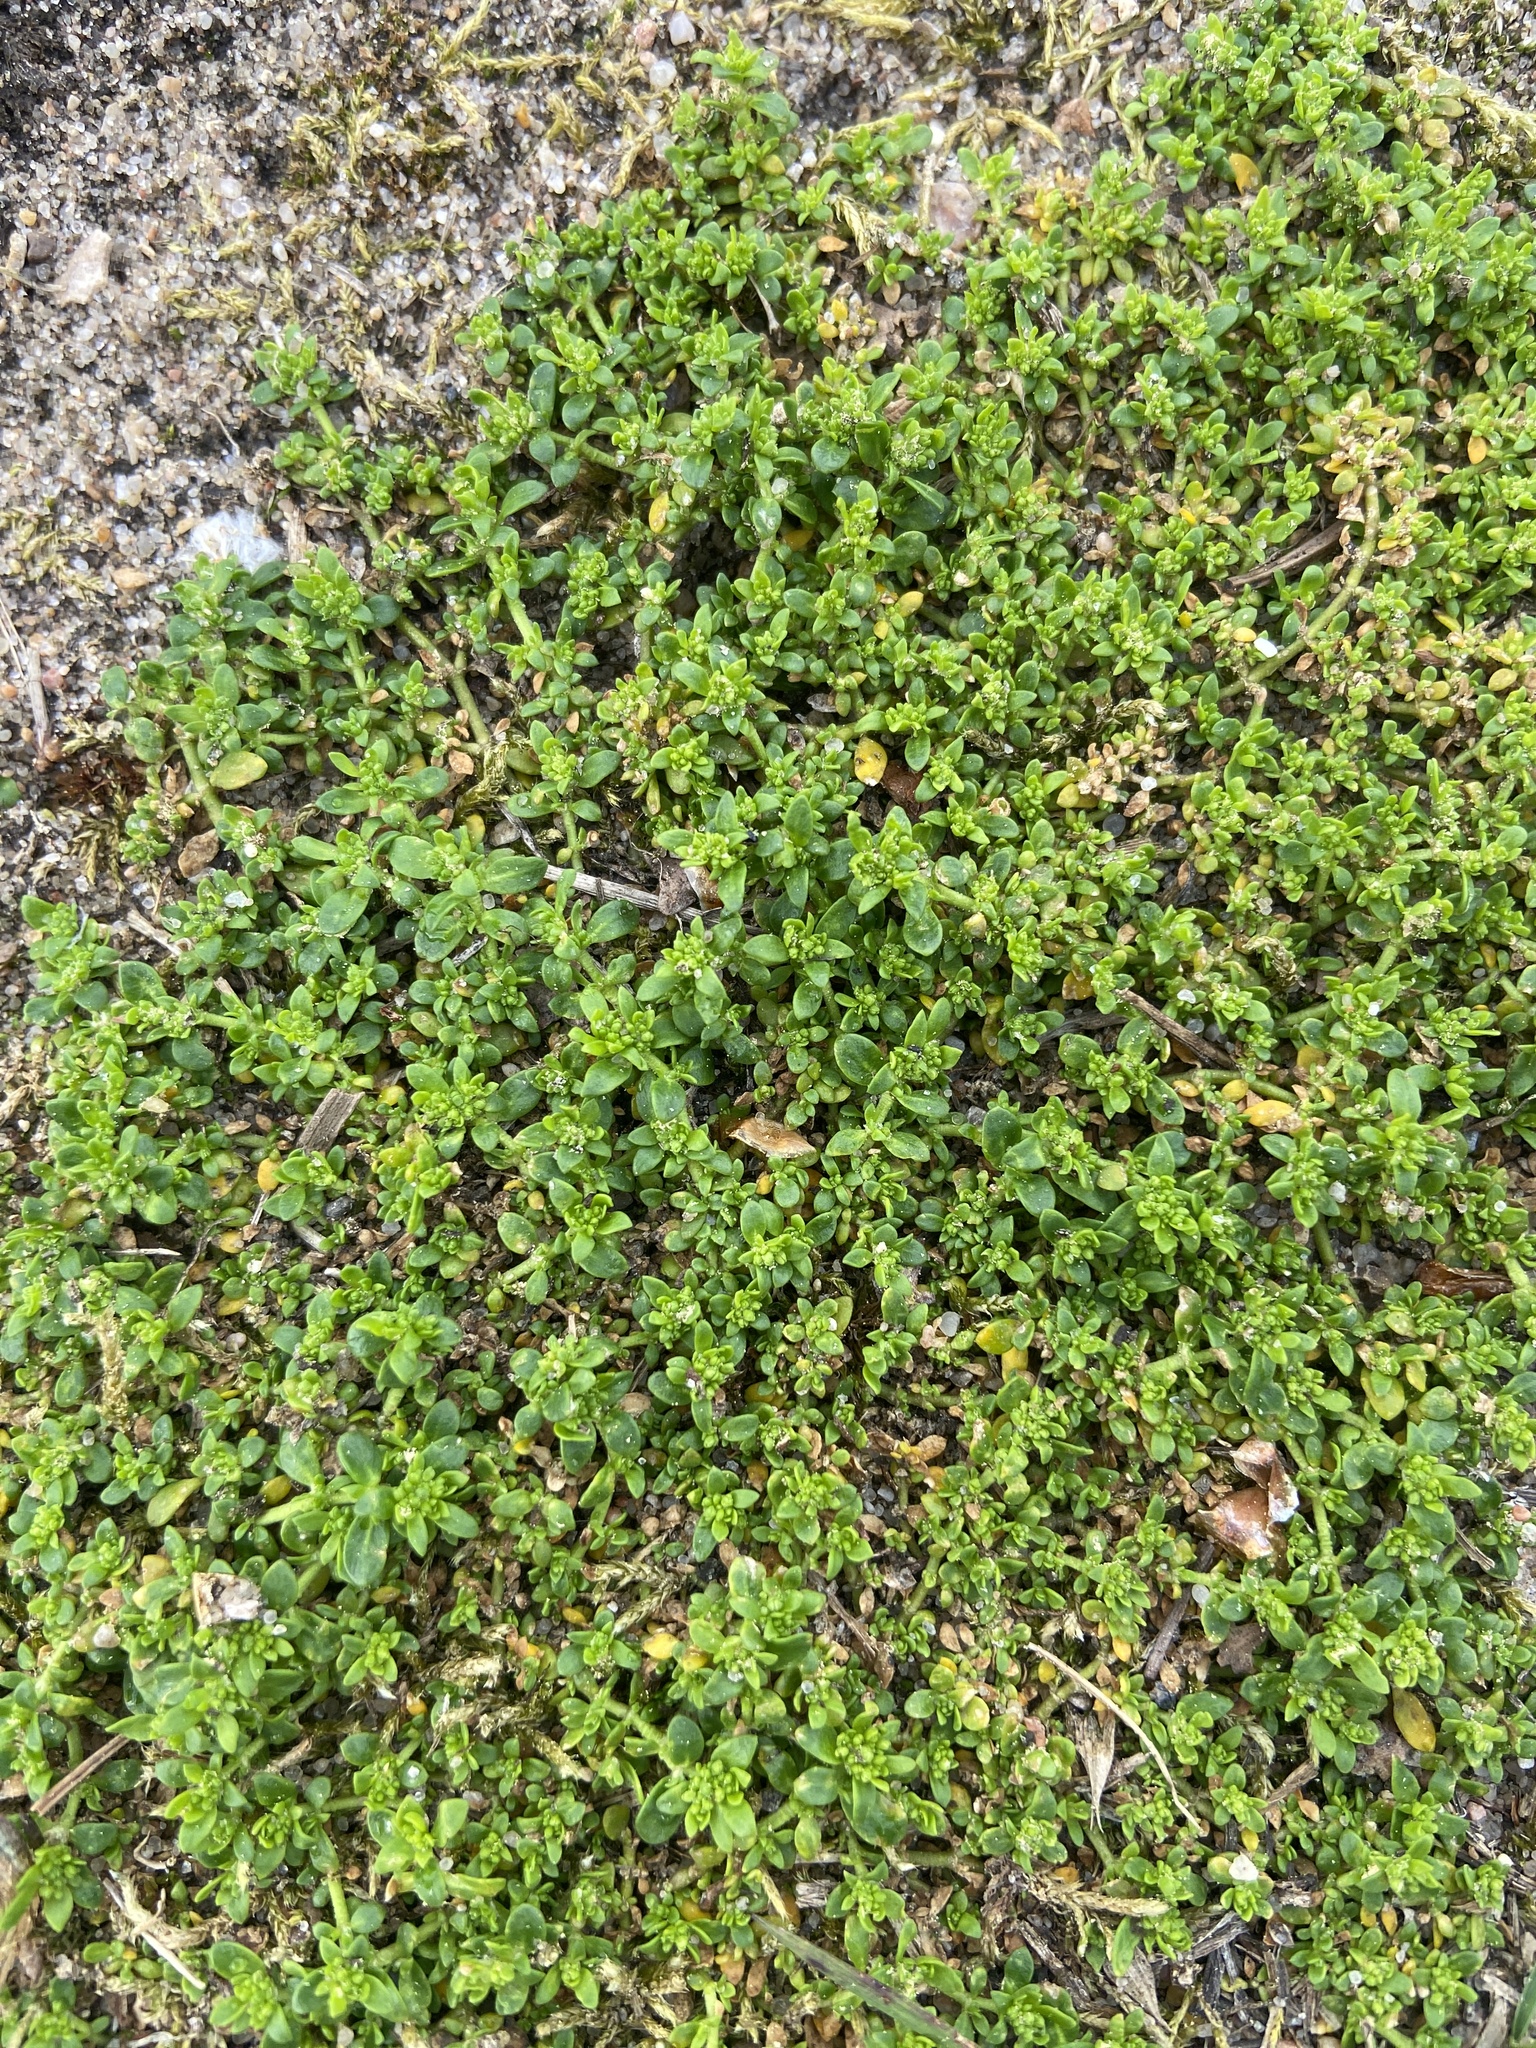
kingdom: Plantae
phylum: Tracheophyta
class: Magnoliopsida
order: Caryophyllales
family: Caryophyllaceae
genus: Herniaria
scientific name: Herniaria glabra
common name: Smooth rupturewort
